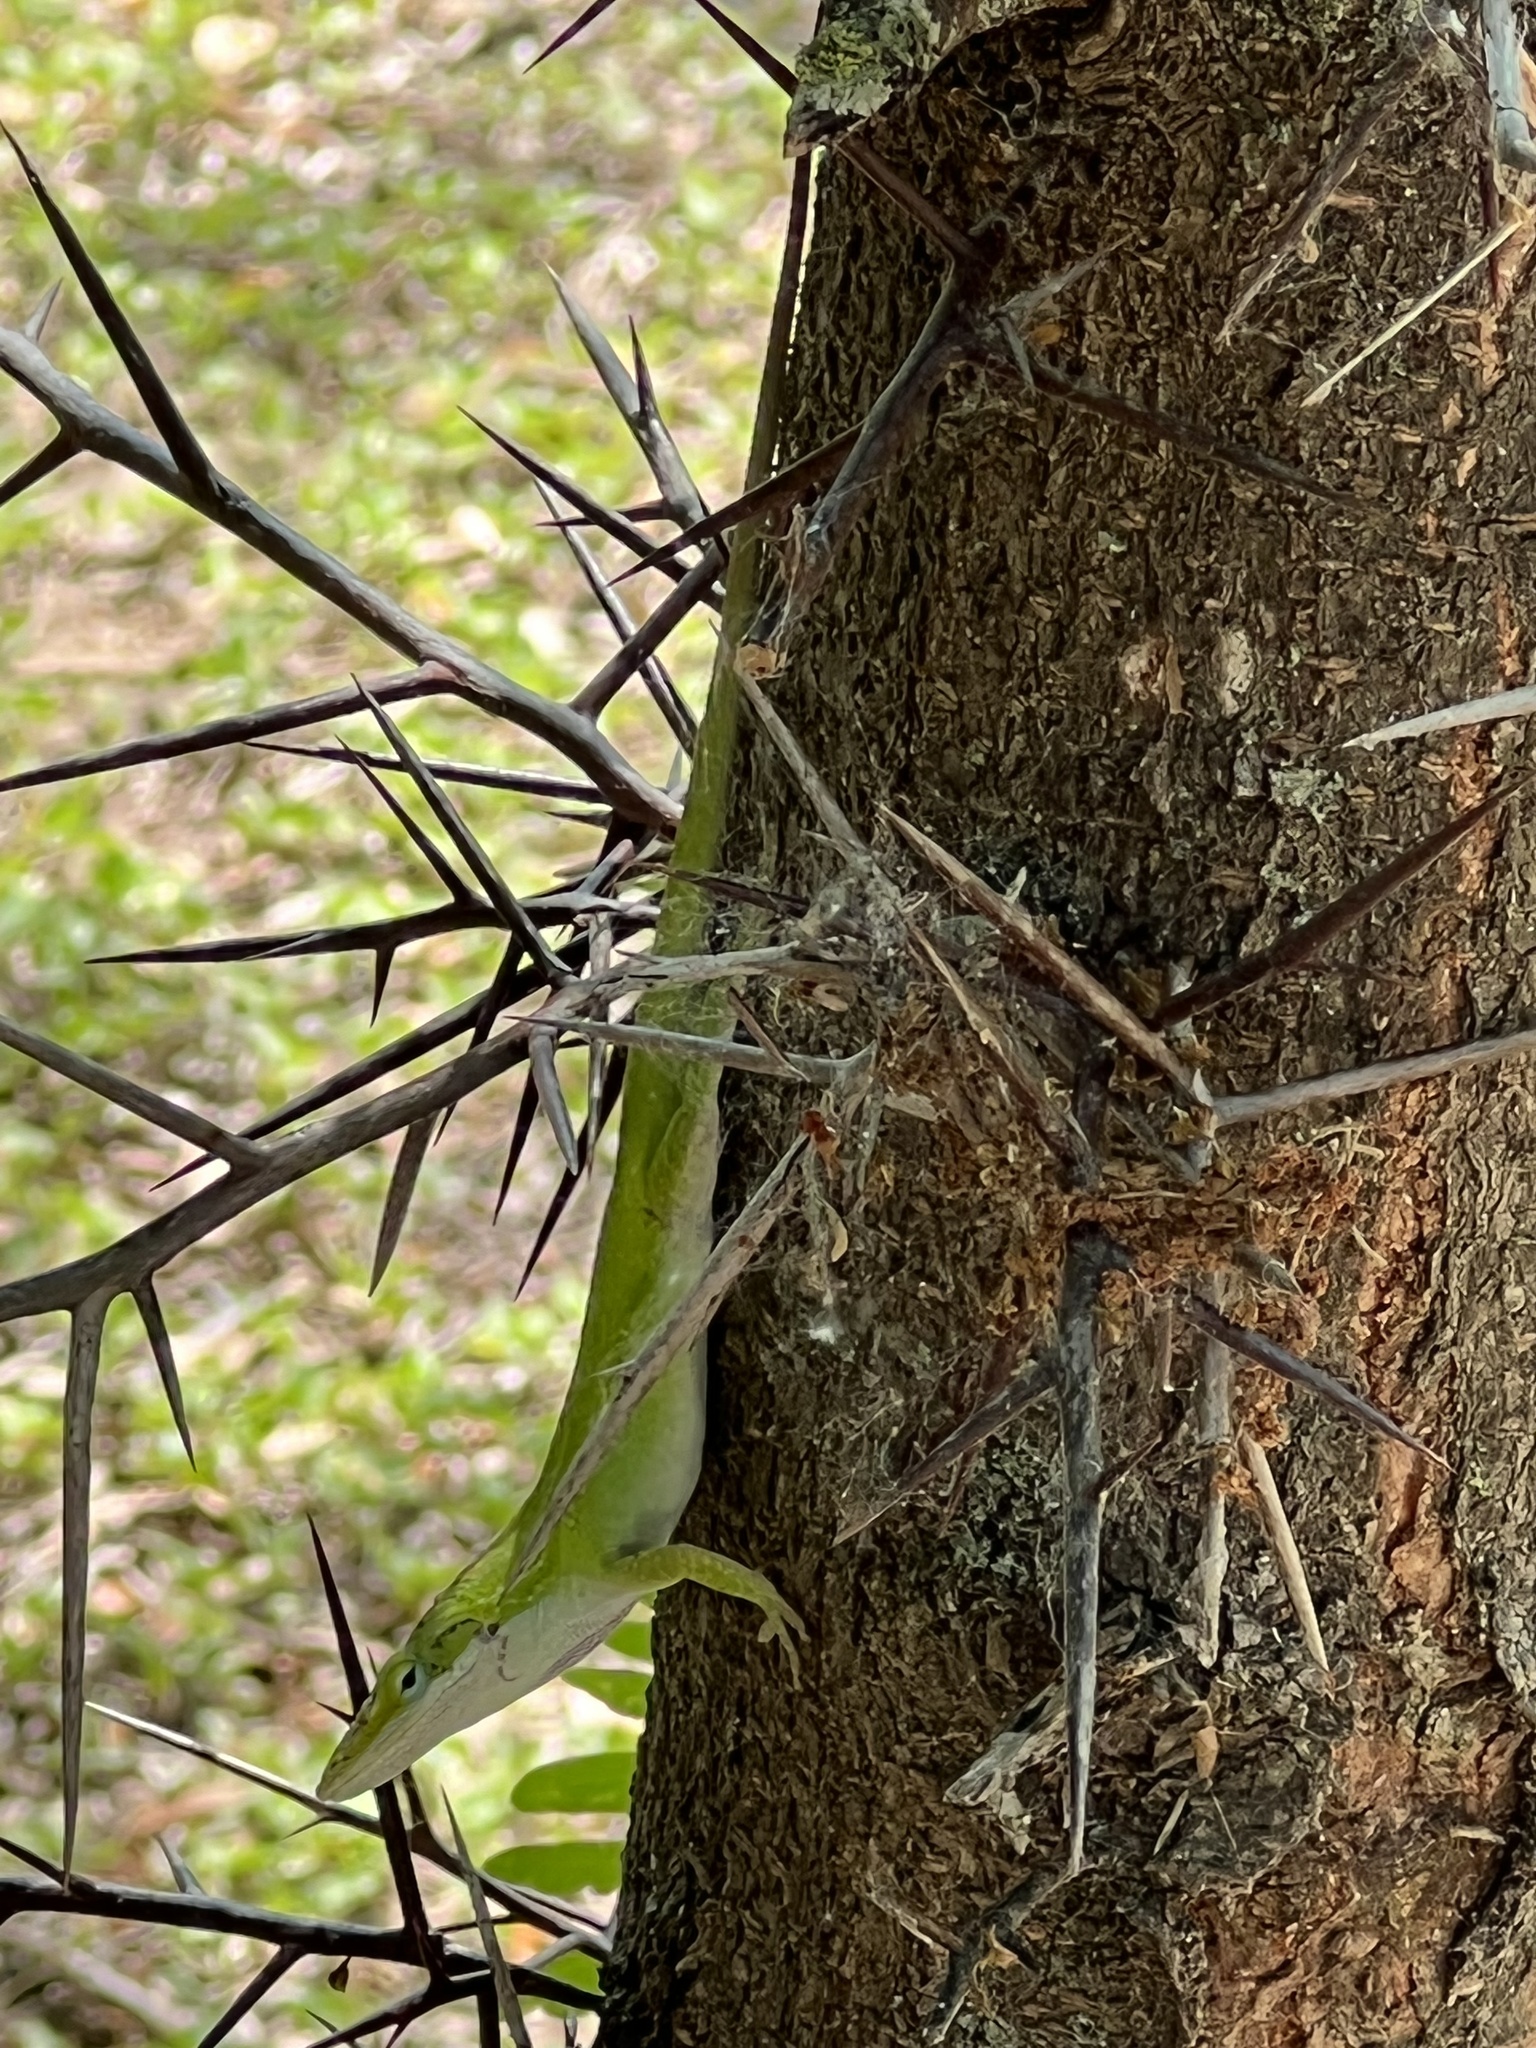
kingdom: Animalia
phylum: Chordata
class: Squamata
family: Dactyloidae
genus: Anolis
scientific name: Anolis carolinensis
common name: Green anole
